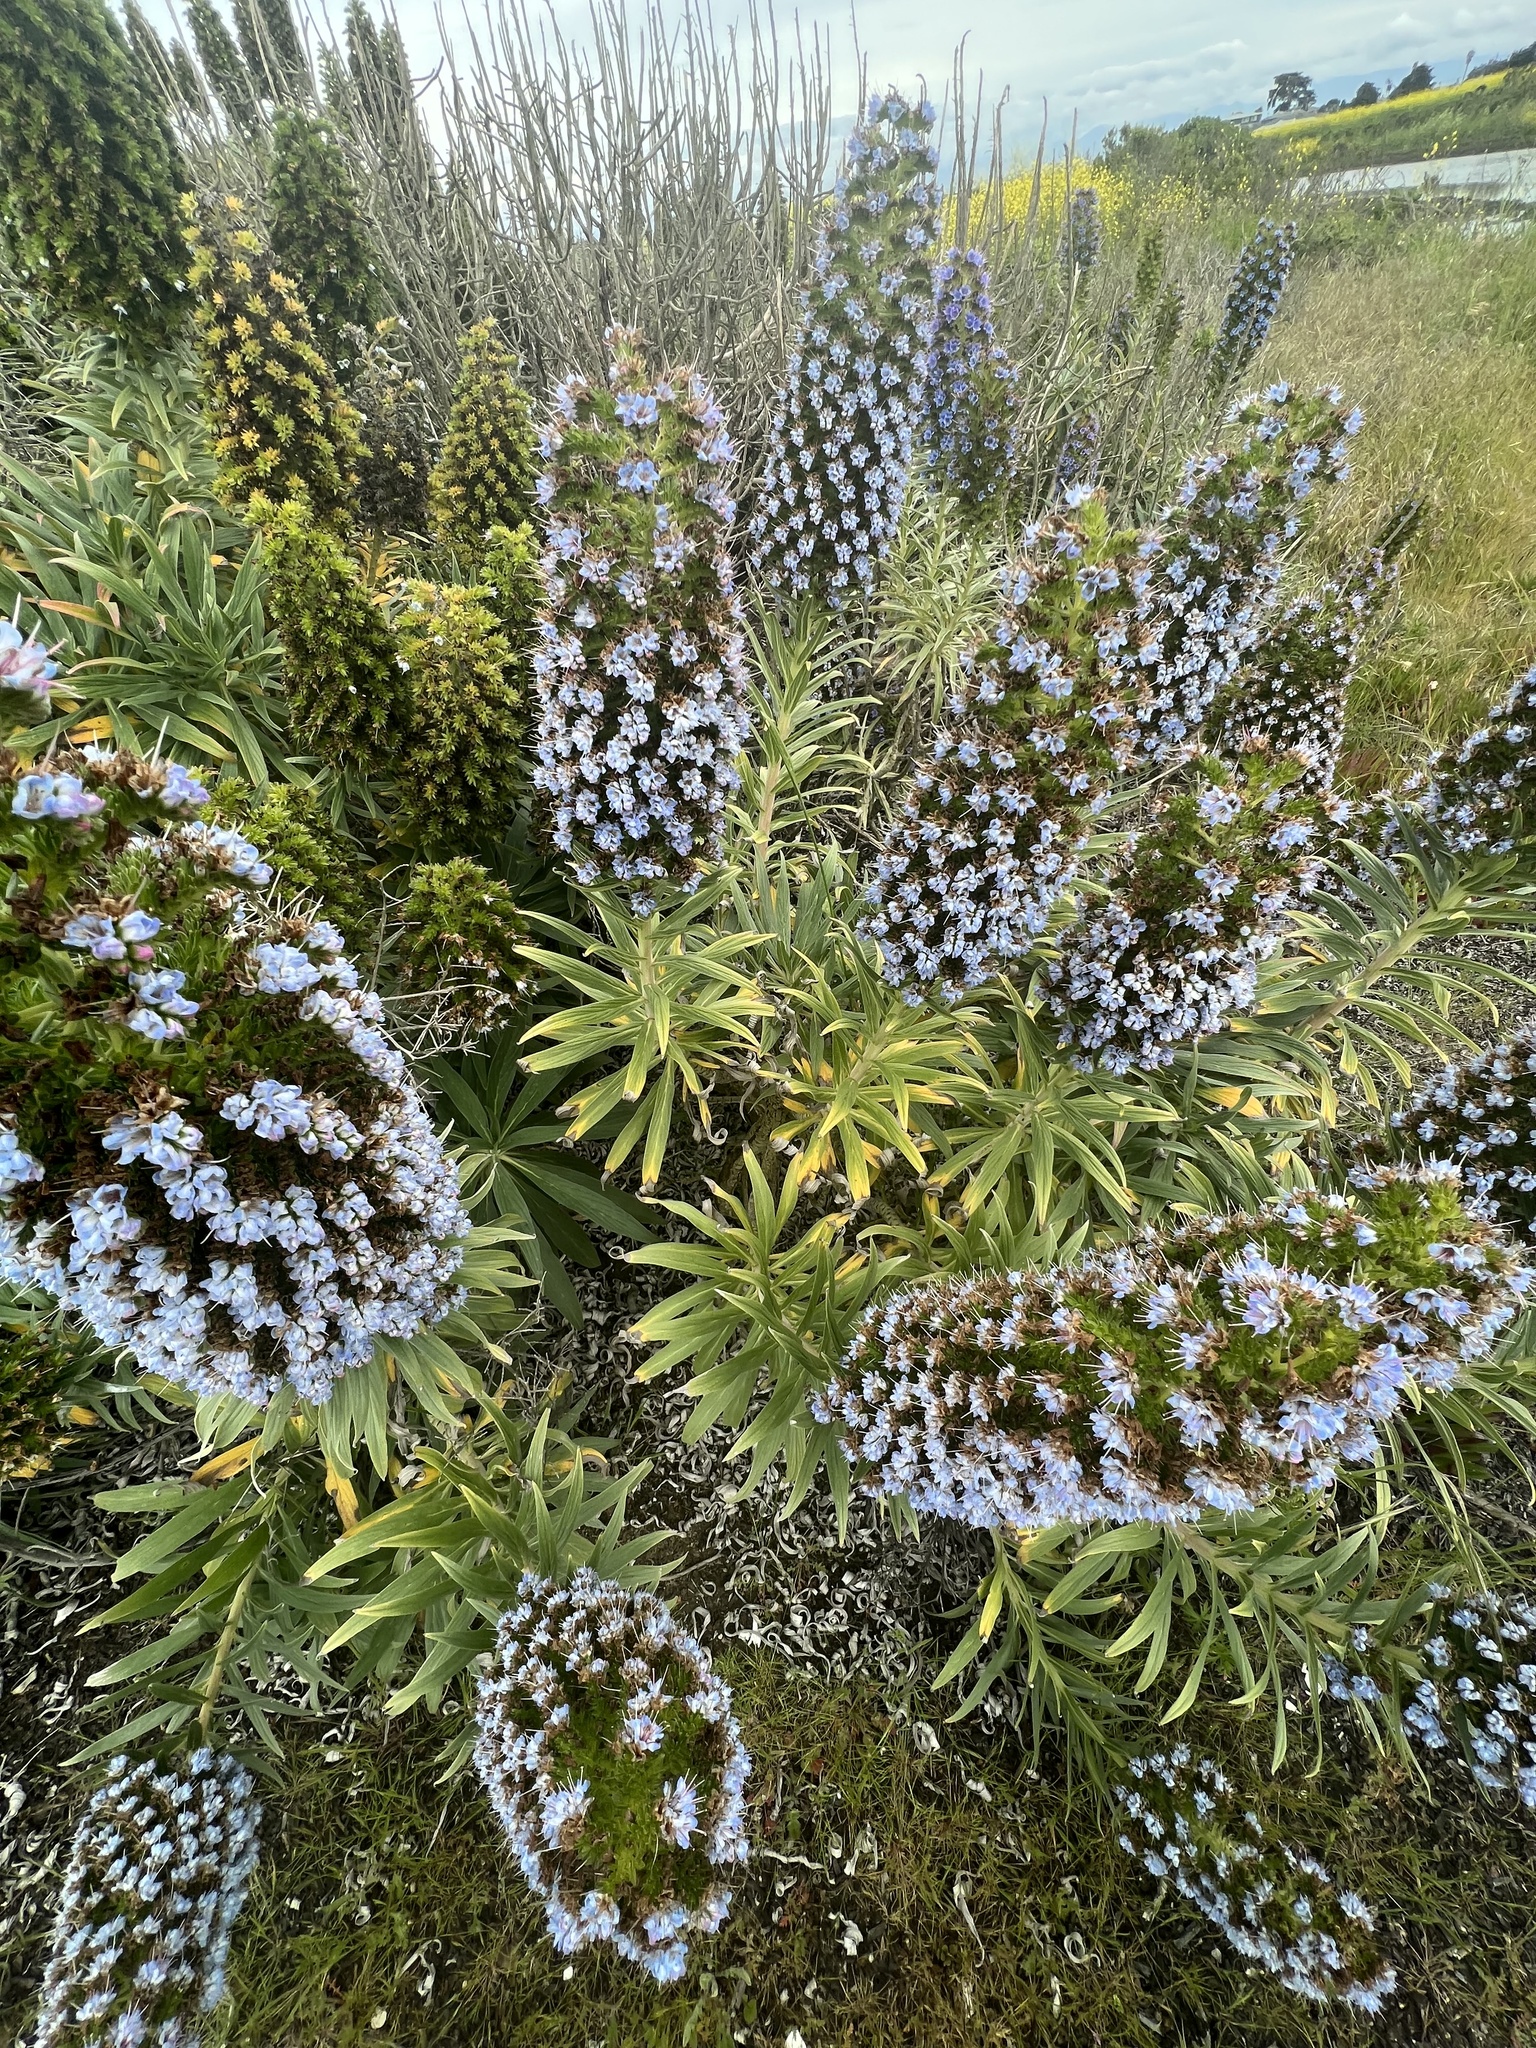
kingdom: Plantae
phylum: Tracheophyta
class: Magnoliopsida
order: Boraginales
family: Boraginaceae
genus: Echium
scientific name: Echium candicans
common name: Pride of madeira
